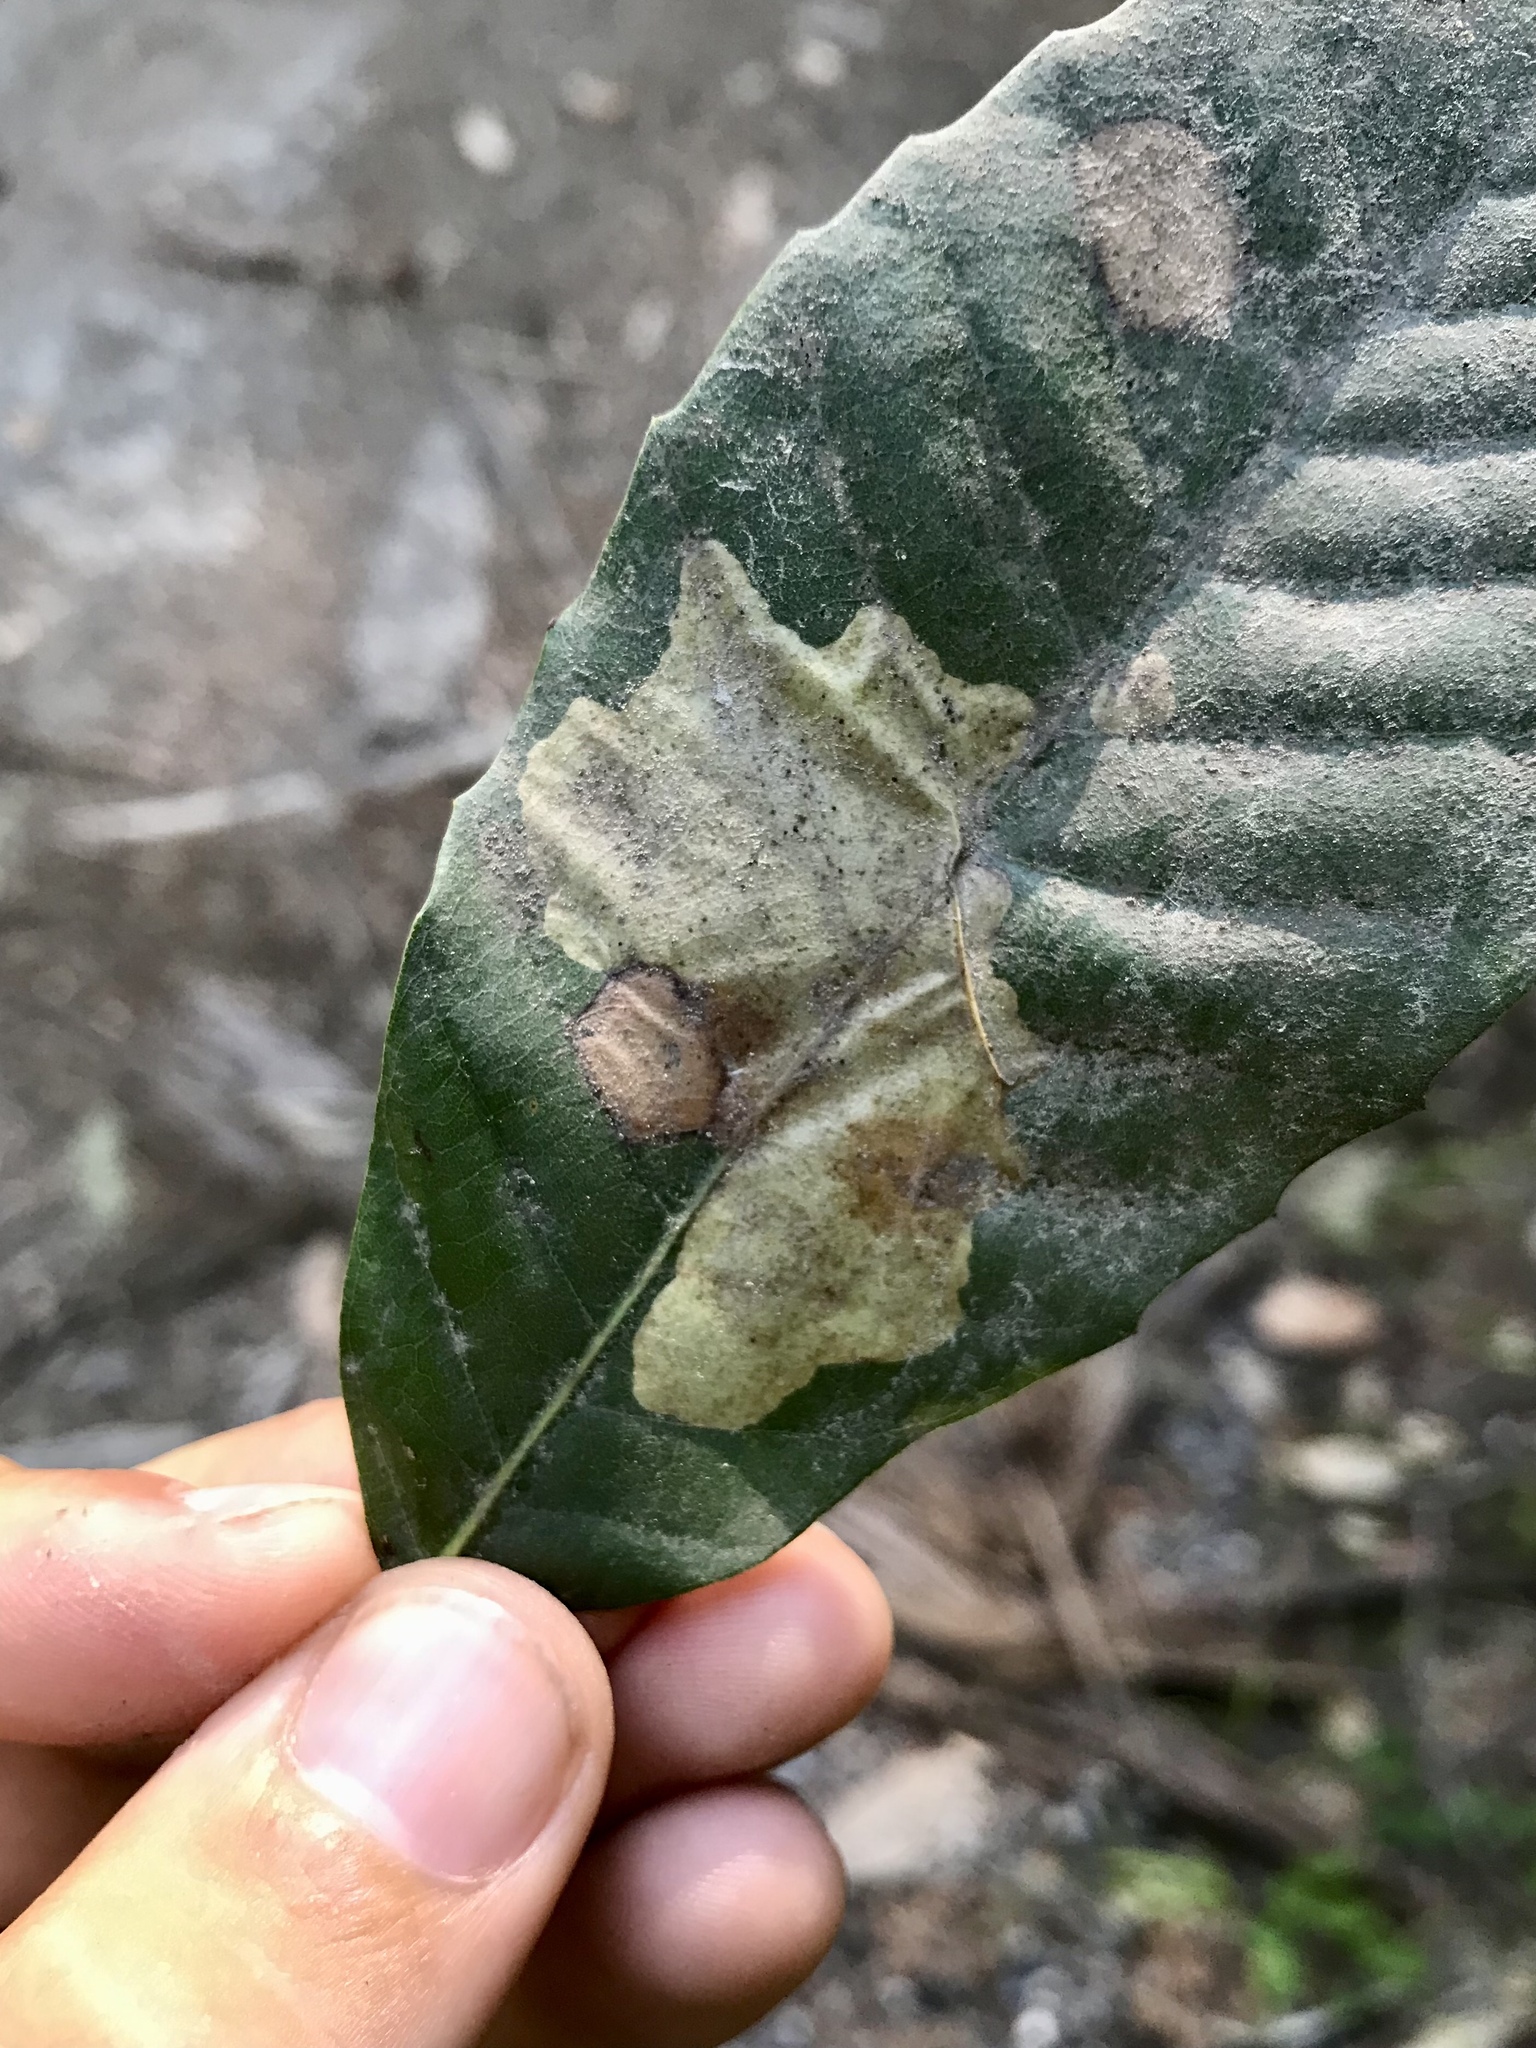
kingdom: Animalia
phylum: Arthropoda
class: Insecta
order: Lepidoptera
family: Gracillariidae
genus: Cameraria
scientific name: Cameraria marinensis
